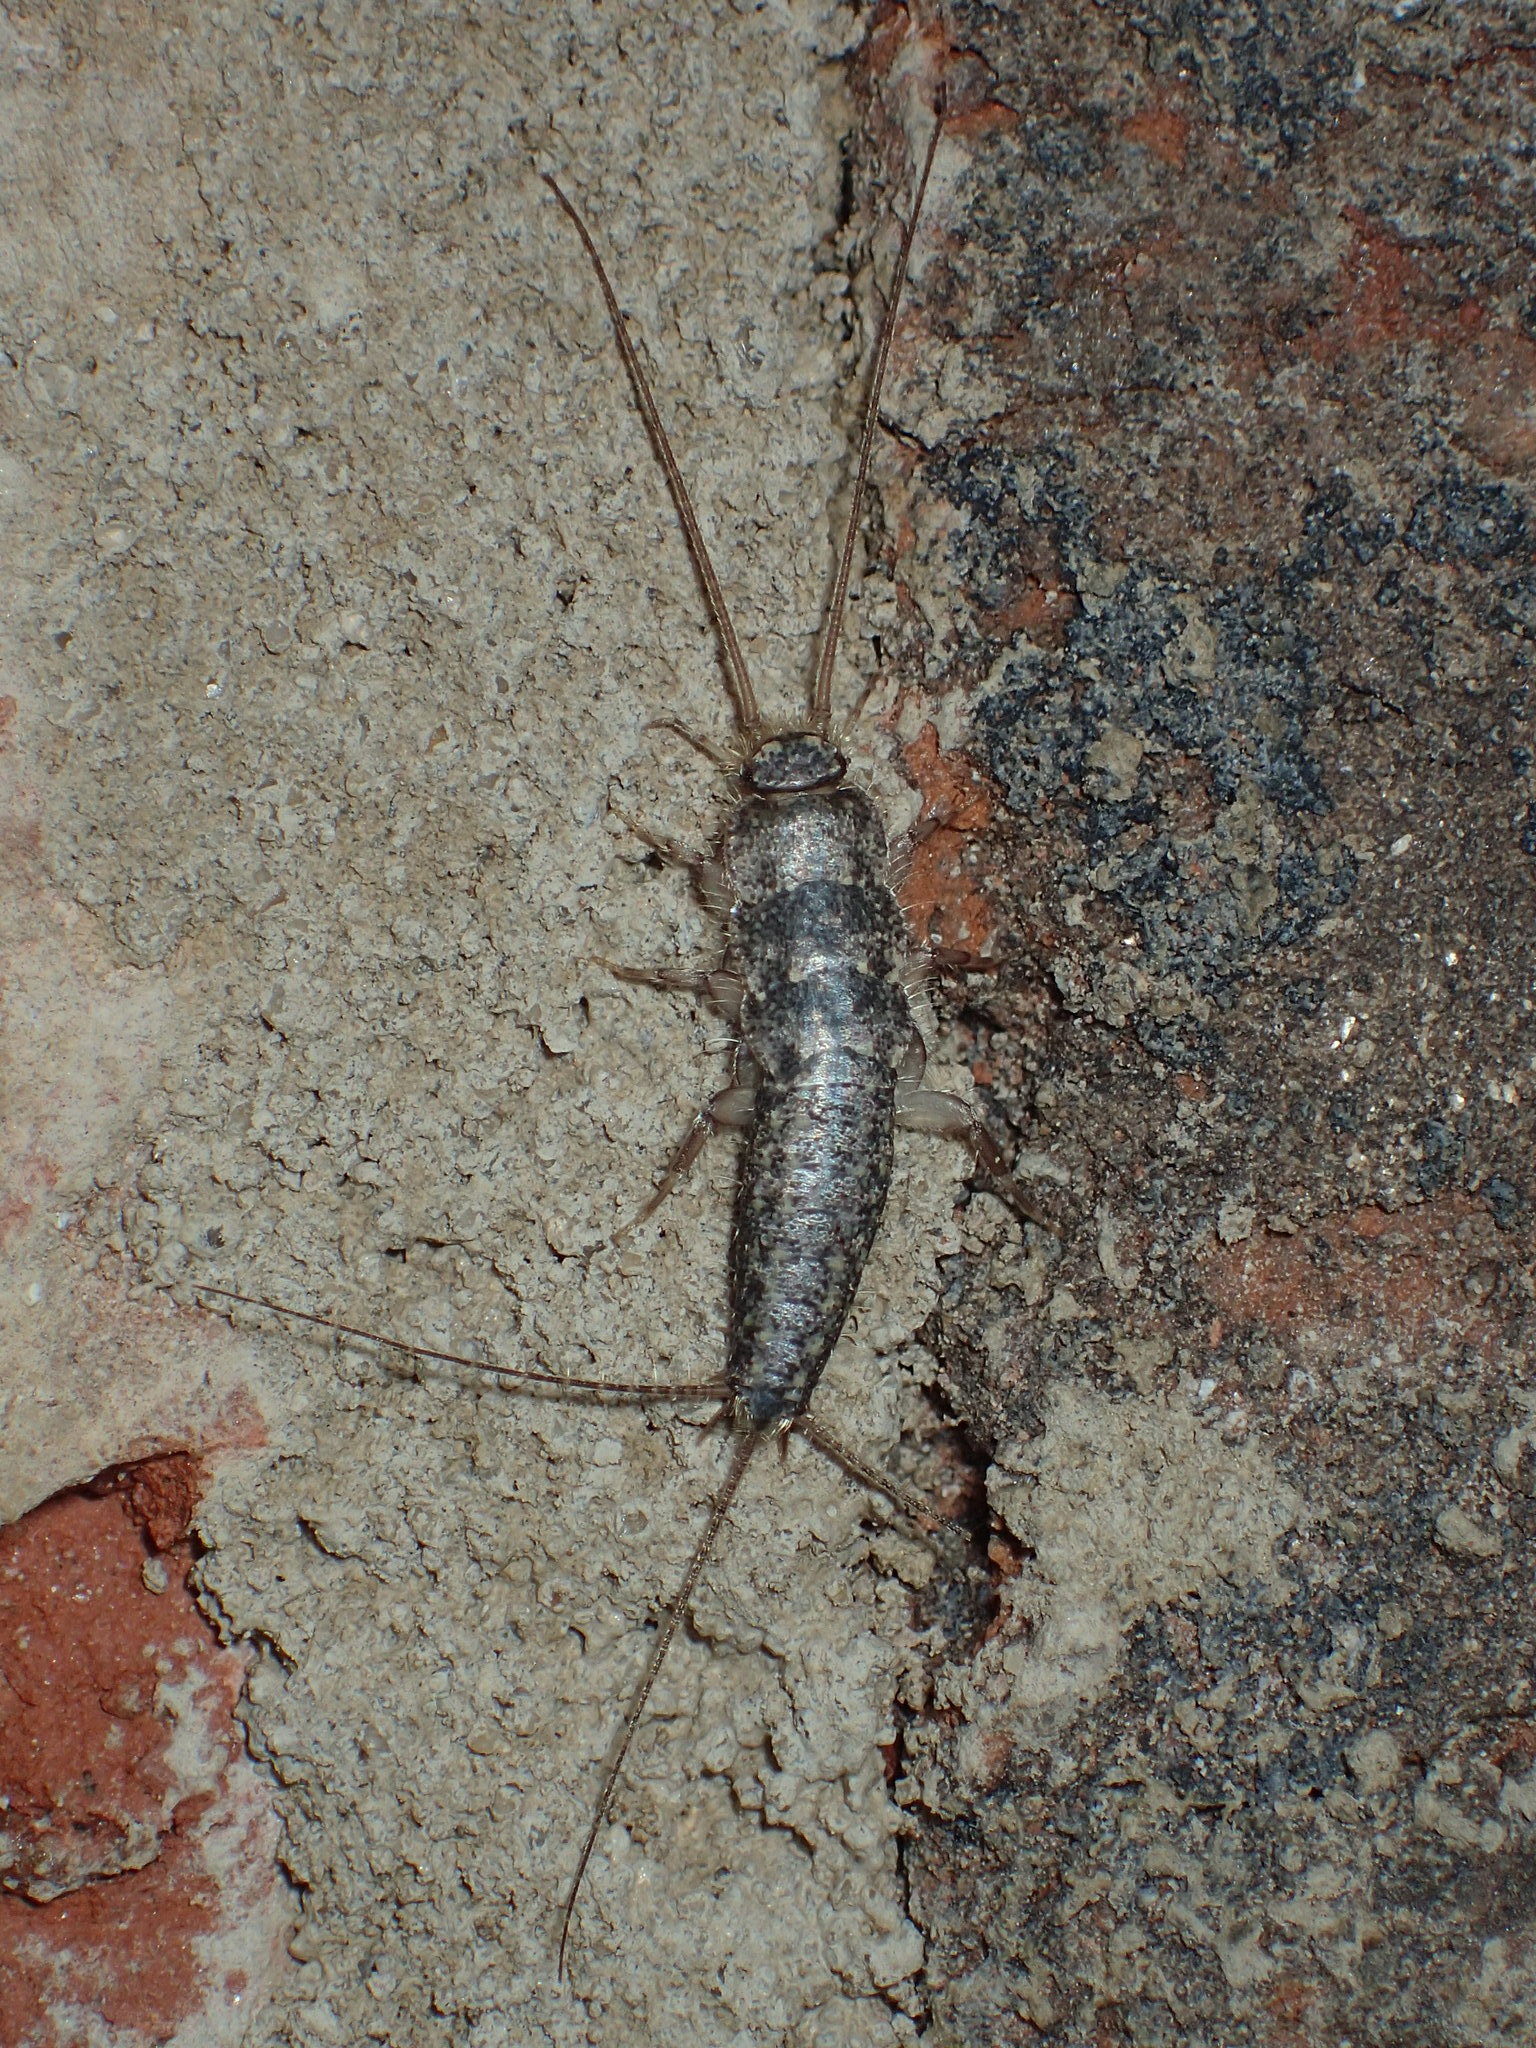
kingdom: Animalia
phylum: Arthropoda
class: Insecta
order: Zygentoma
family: Lepismatidae
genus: Ctenolepisma
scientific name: Ctenolepisma lineata
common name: Four-lined silverfish
